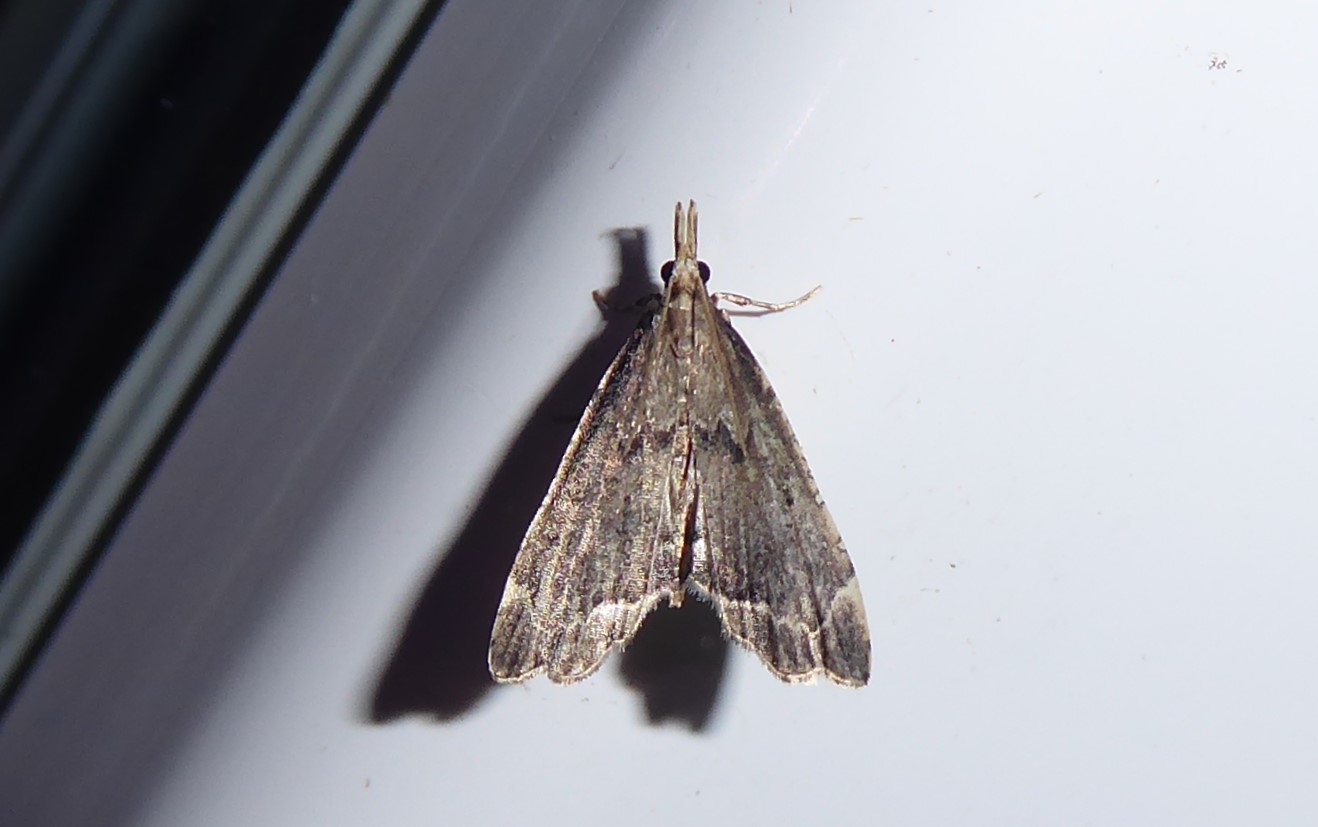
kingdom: Animalia
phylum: Arthropoda
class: Insecta
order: Lepidoptera
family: Crambidae
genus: Diplopseustis
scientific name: Diplopseustis perieresalis
